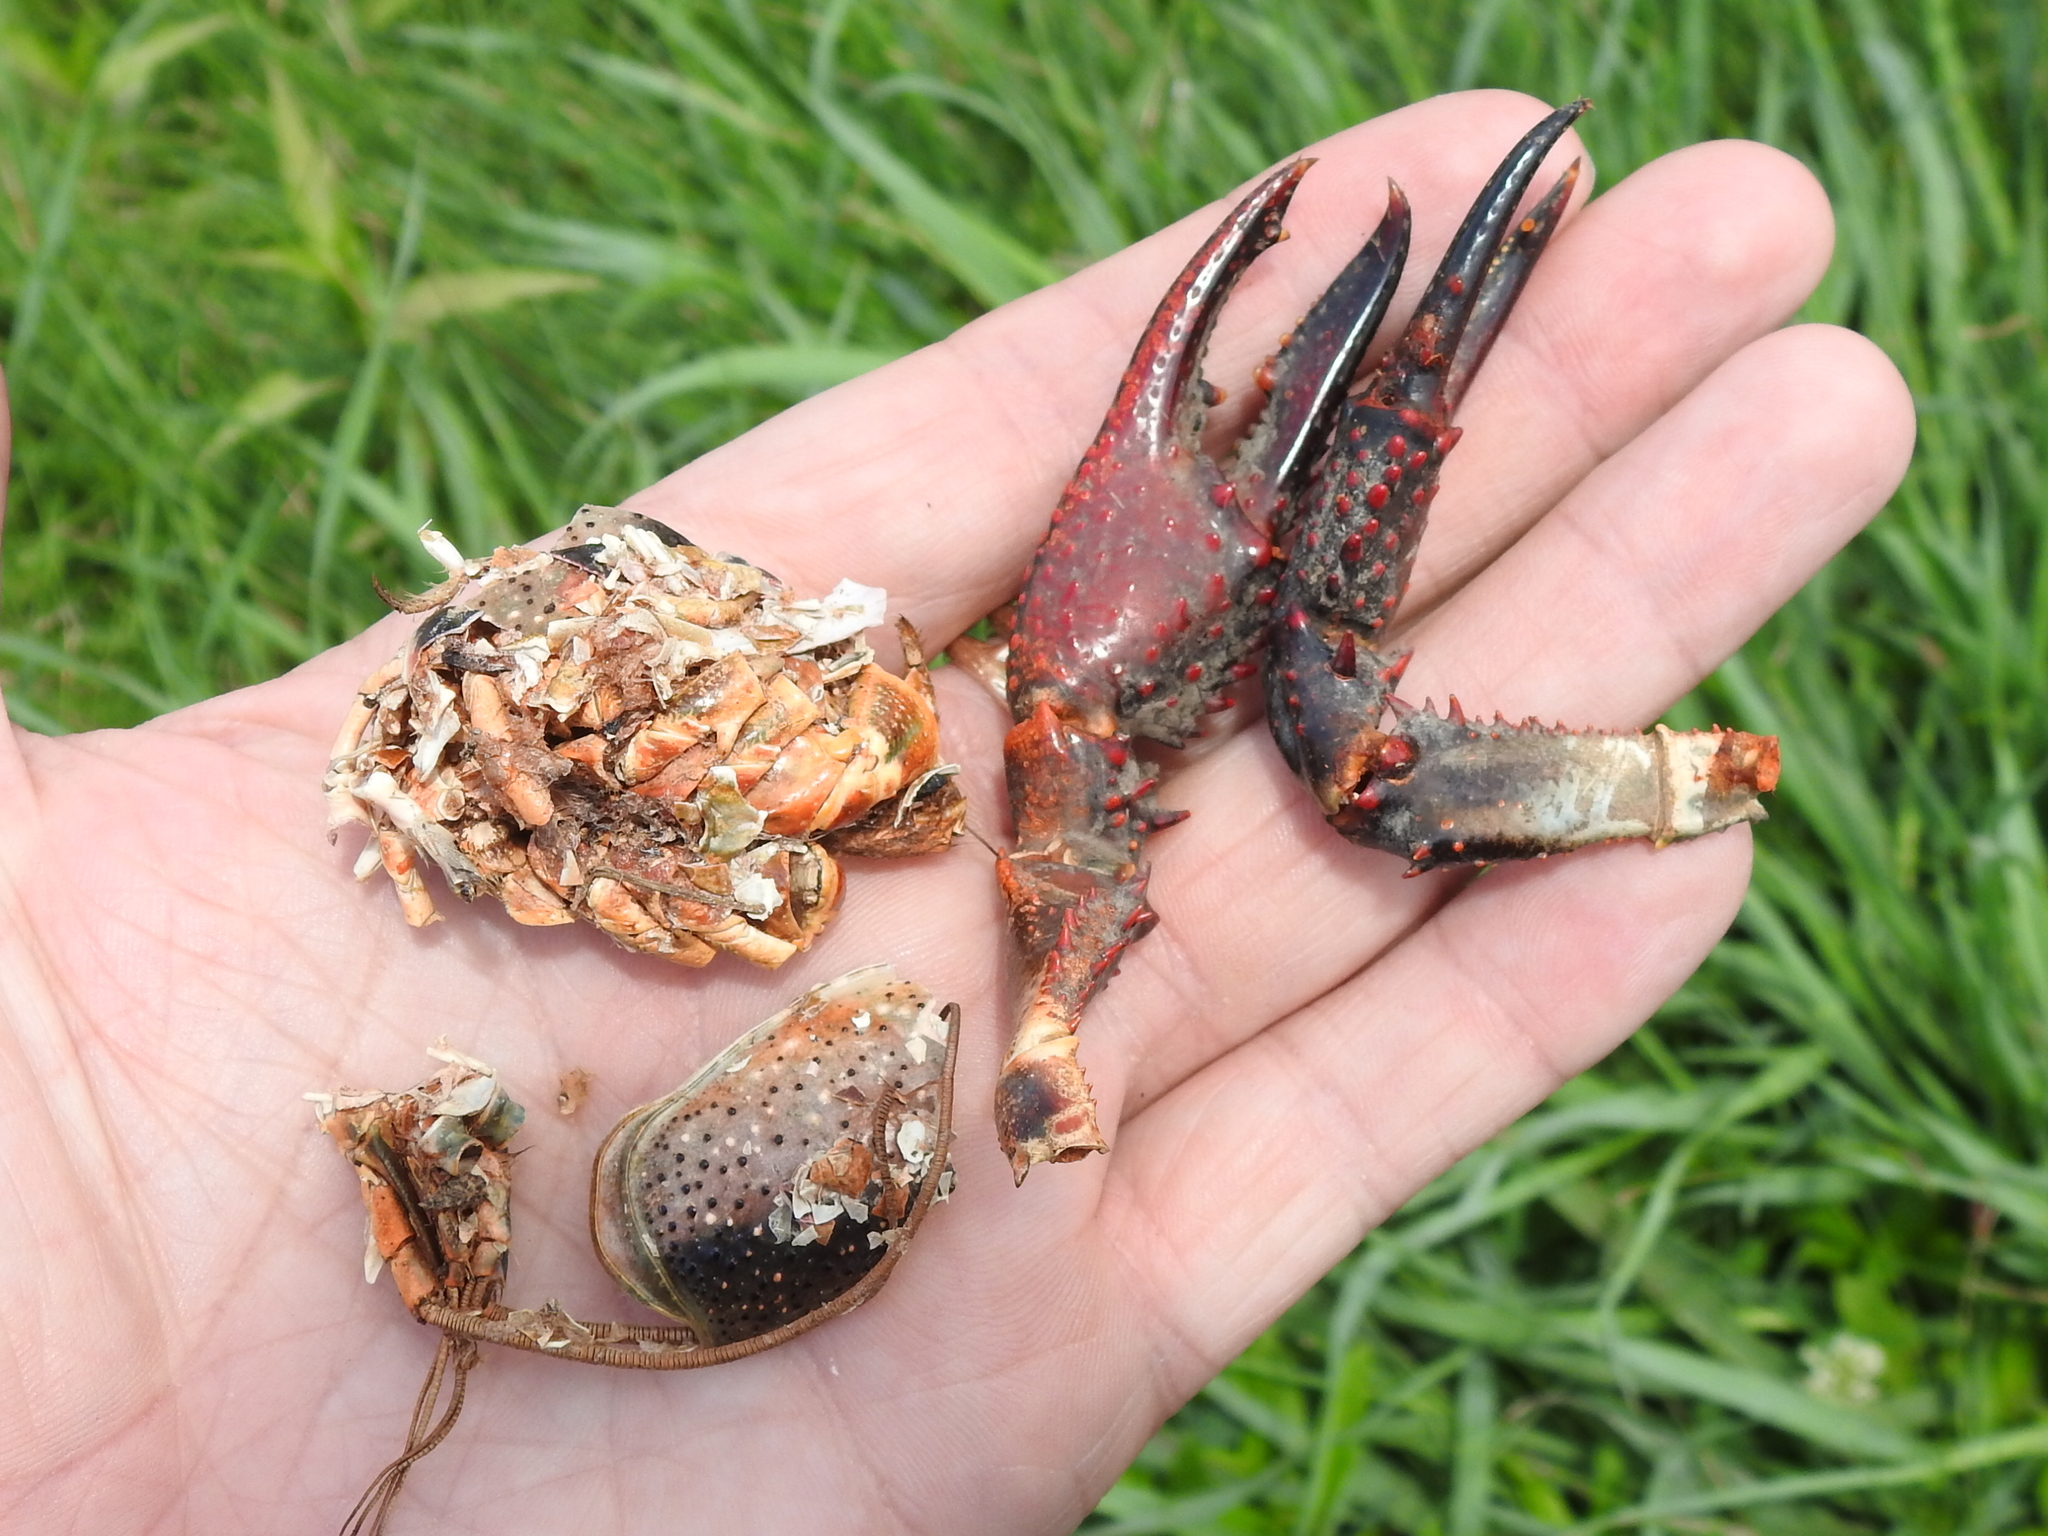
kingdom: Animalia
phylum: Arthropoda
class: Malacostraca
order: Decapoda
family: Cambaridae
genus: Procambarus
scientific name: Procambarus clarkii
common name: Red swamp crayfish
